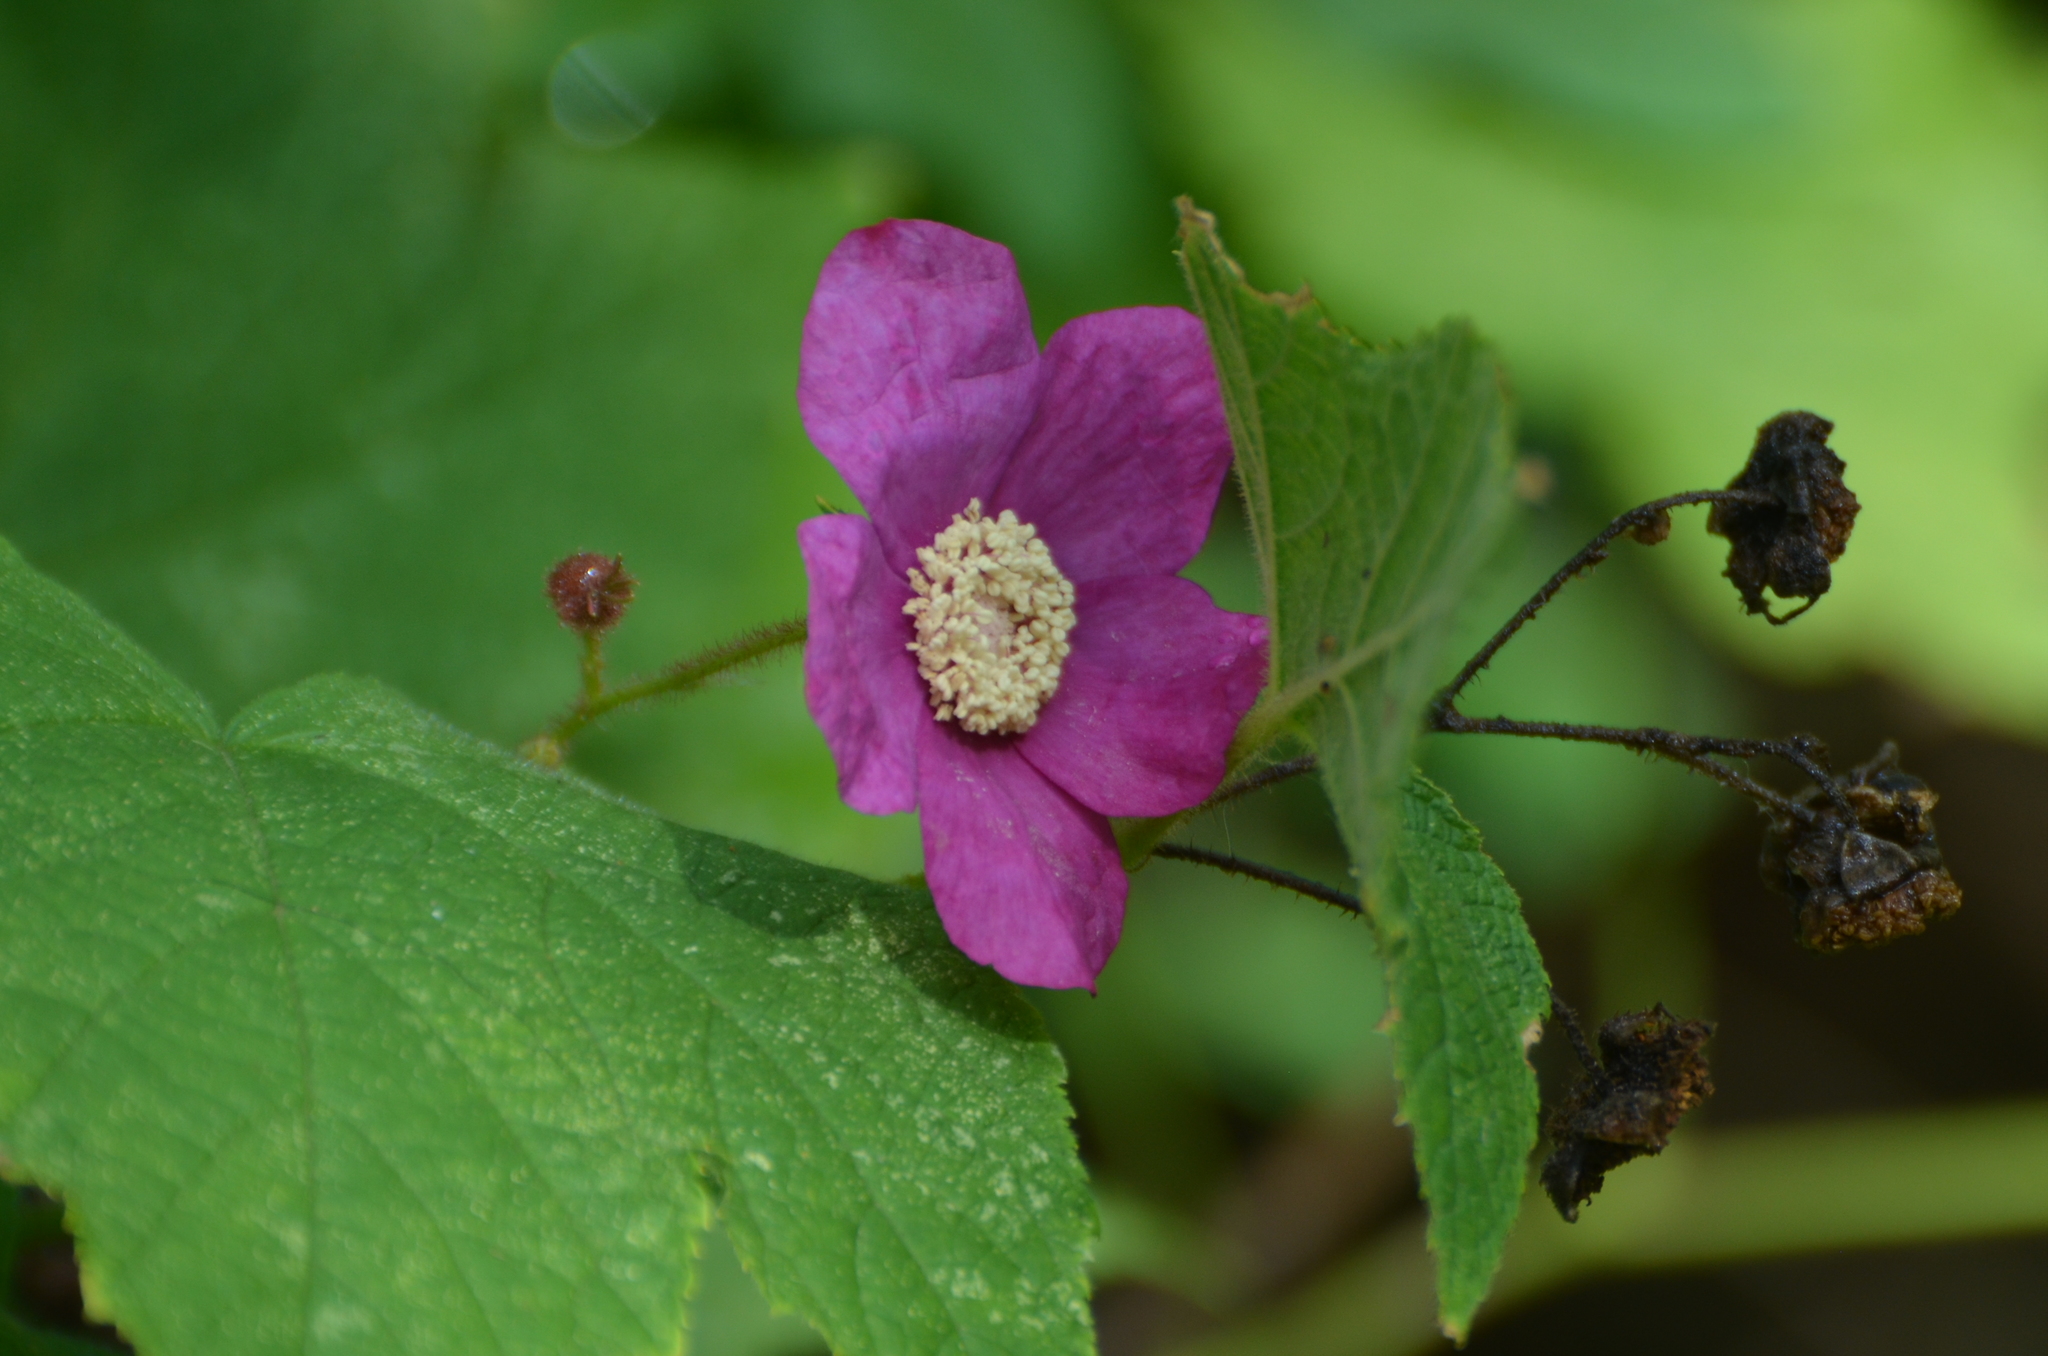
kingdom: Plantae
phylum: Tracheophyta
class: Magnoliopsida
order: Rosales
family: Rosaceae
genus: Rubus
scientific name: Rubus odoratus
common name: Purple-flowered raspberry
